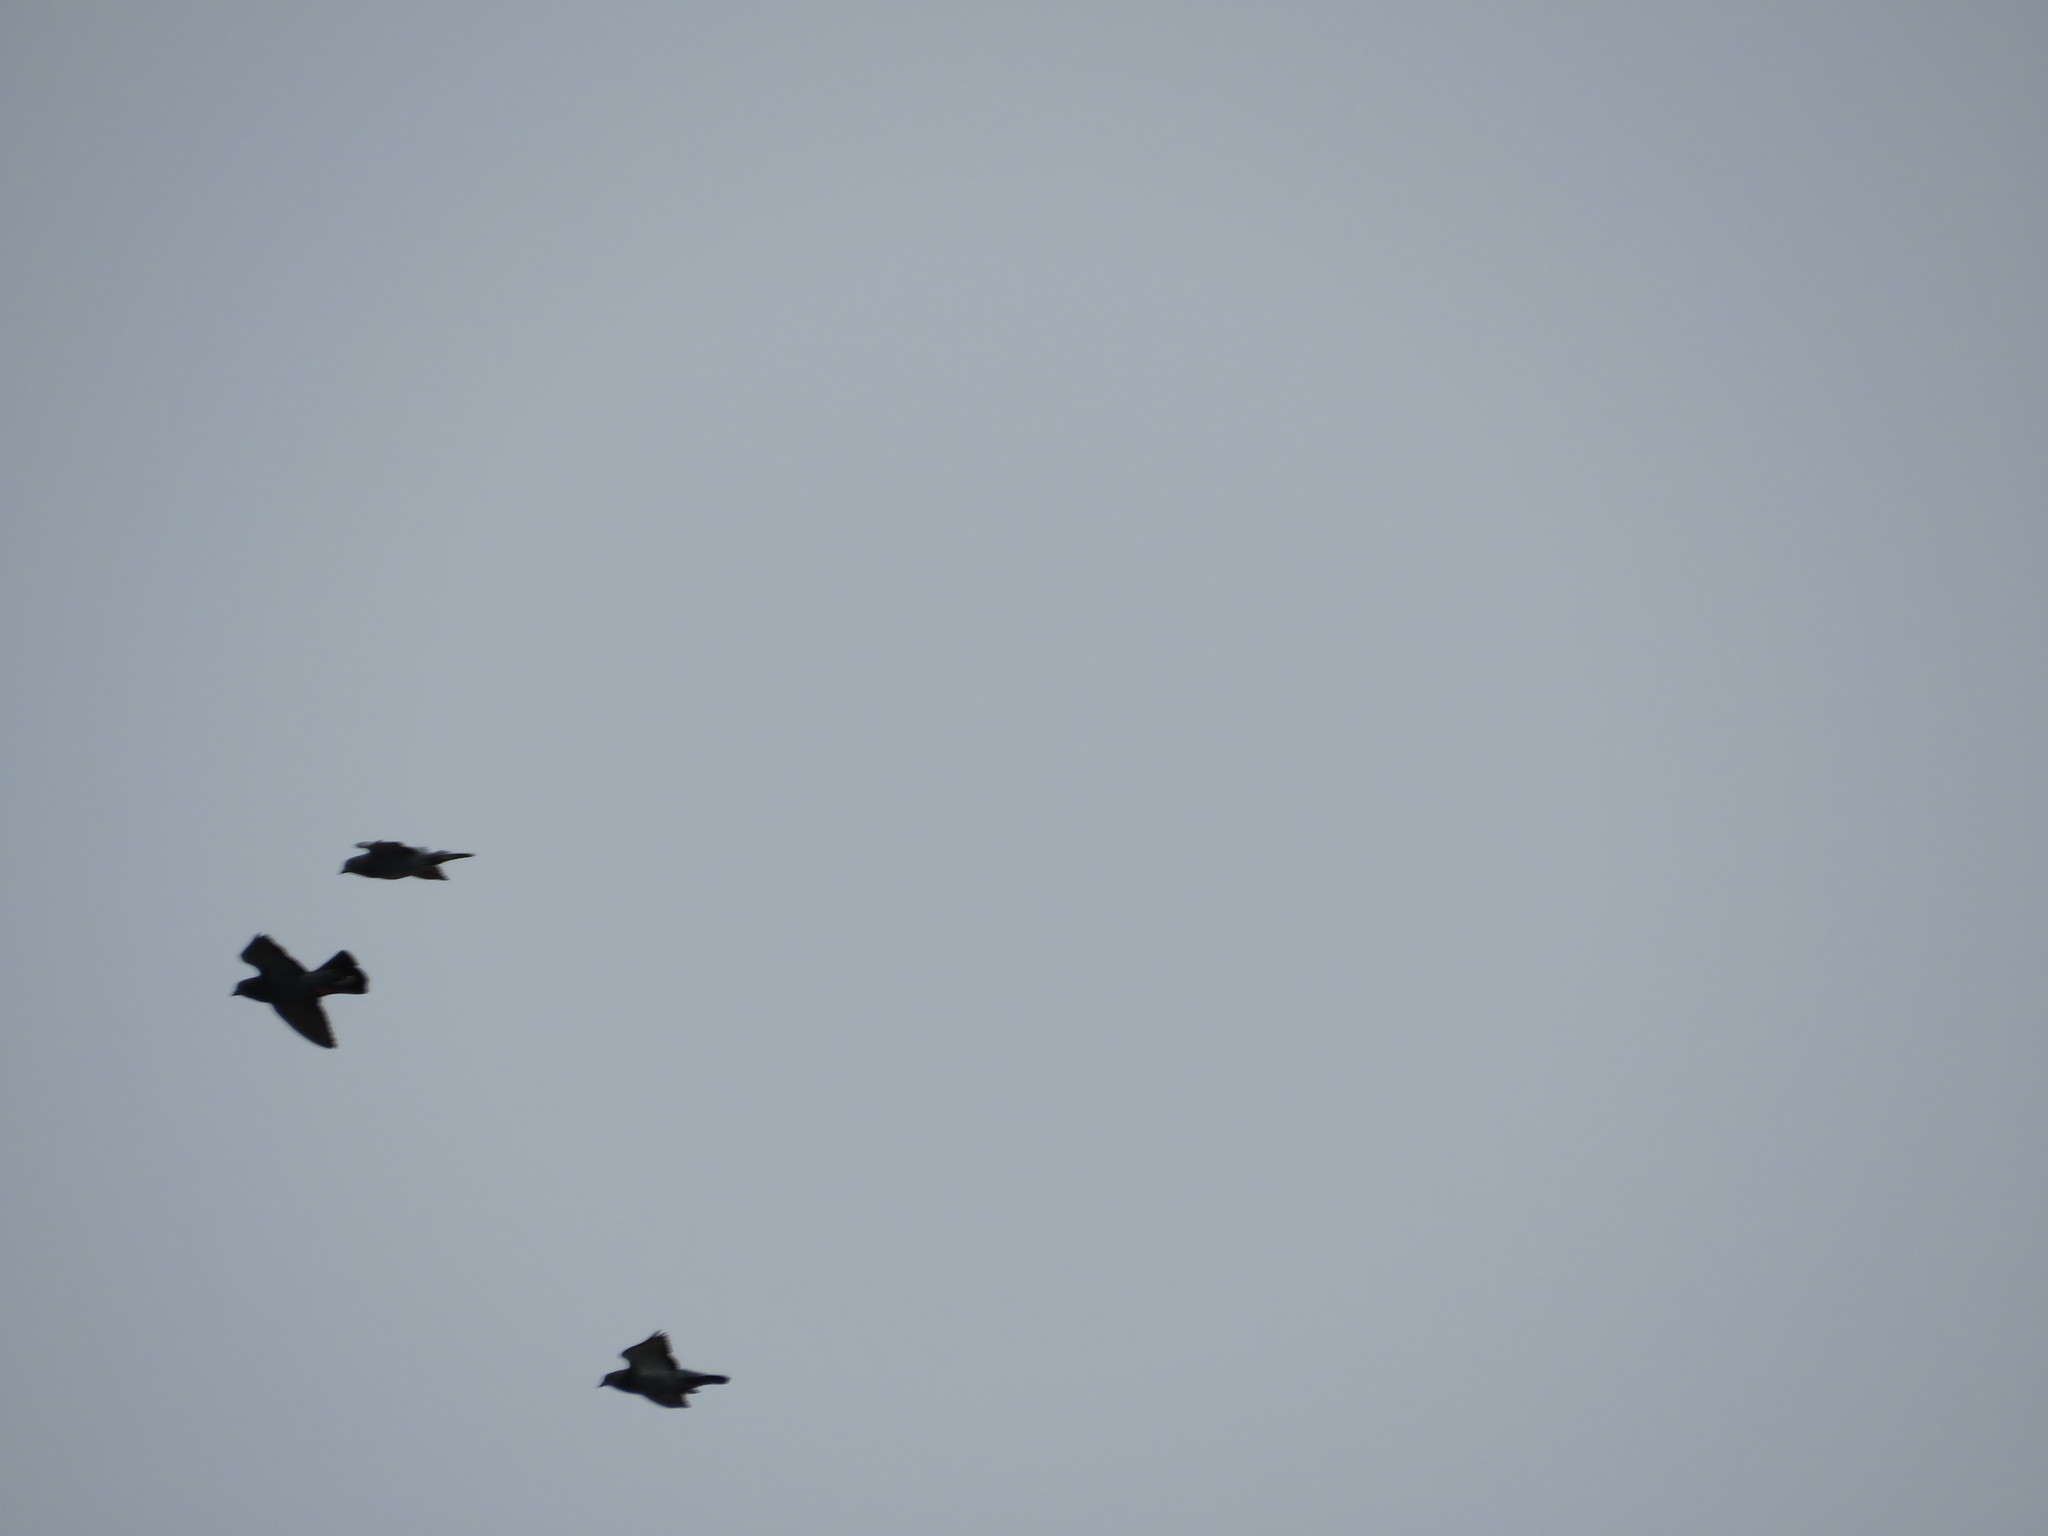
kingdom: Animalia
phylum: Chordata
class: Aves
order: Columbiformes
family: Columbidae
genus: Columba
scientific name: Columba livia
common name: Rock pigeon
